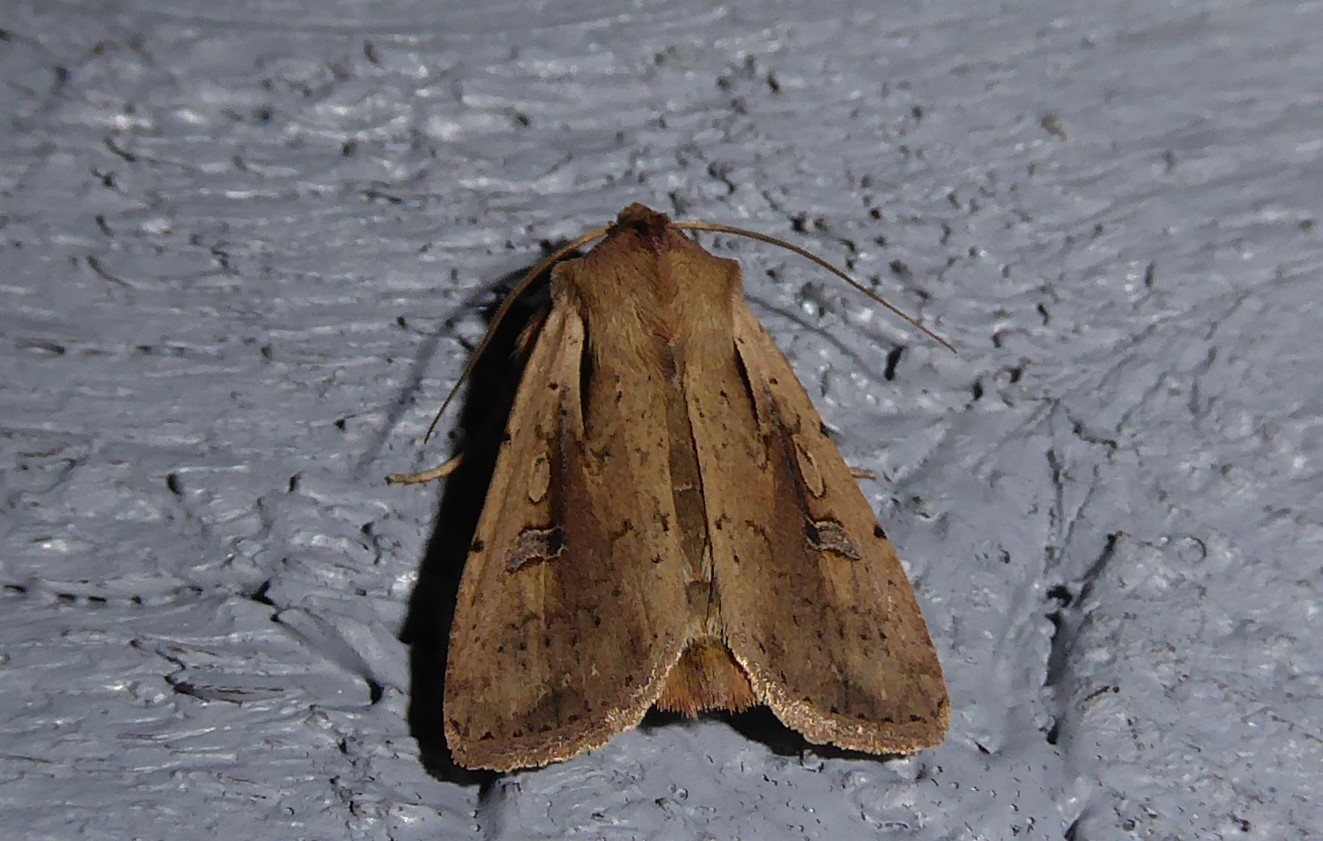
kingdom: Animalia
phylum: Arthropoda
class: Insecta
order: Lepidoptera
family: Noctuidae
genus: Ichneutica
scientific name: Ichneutica atristriga
